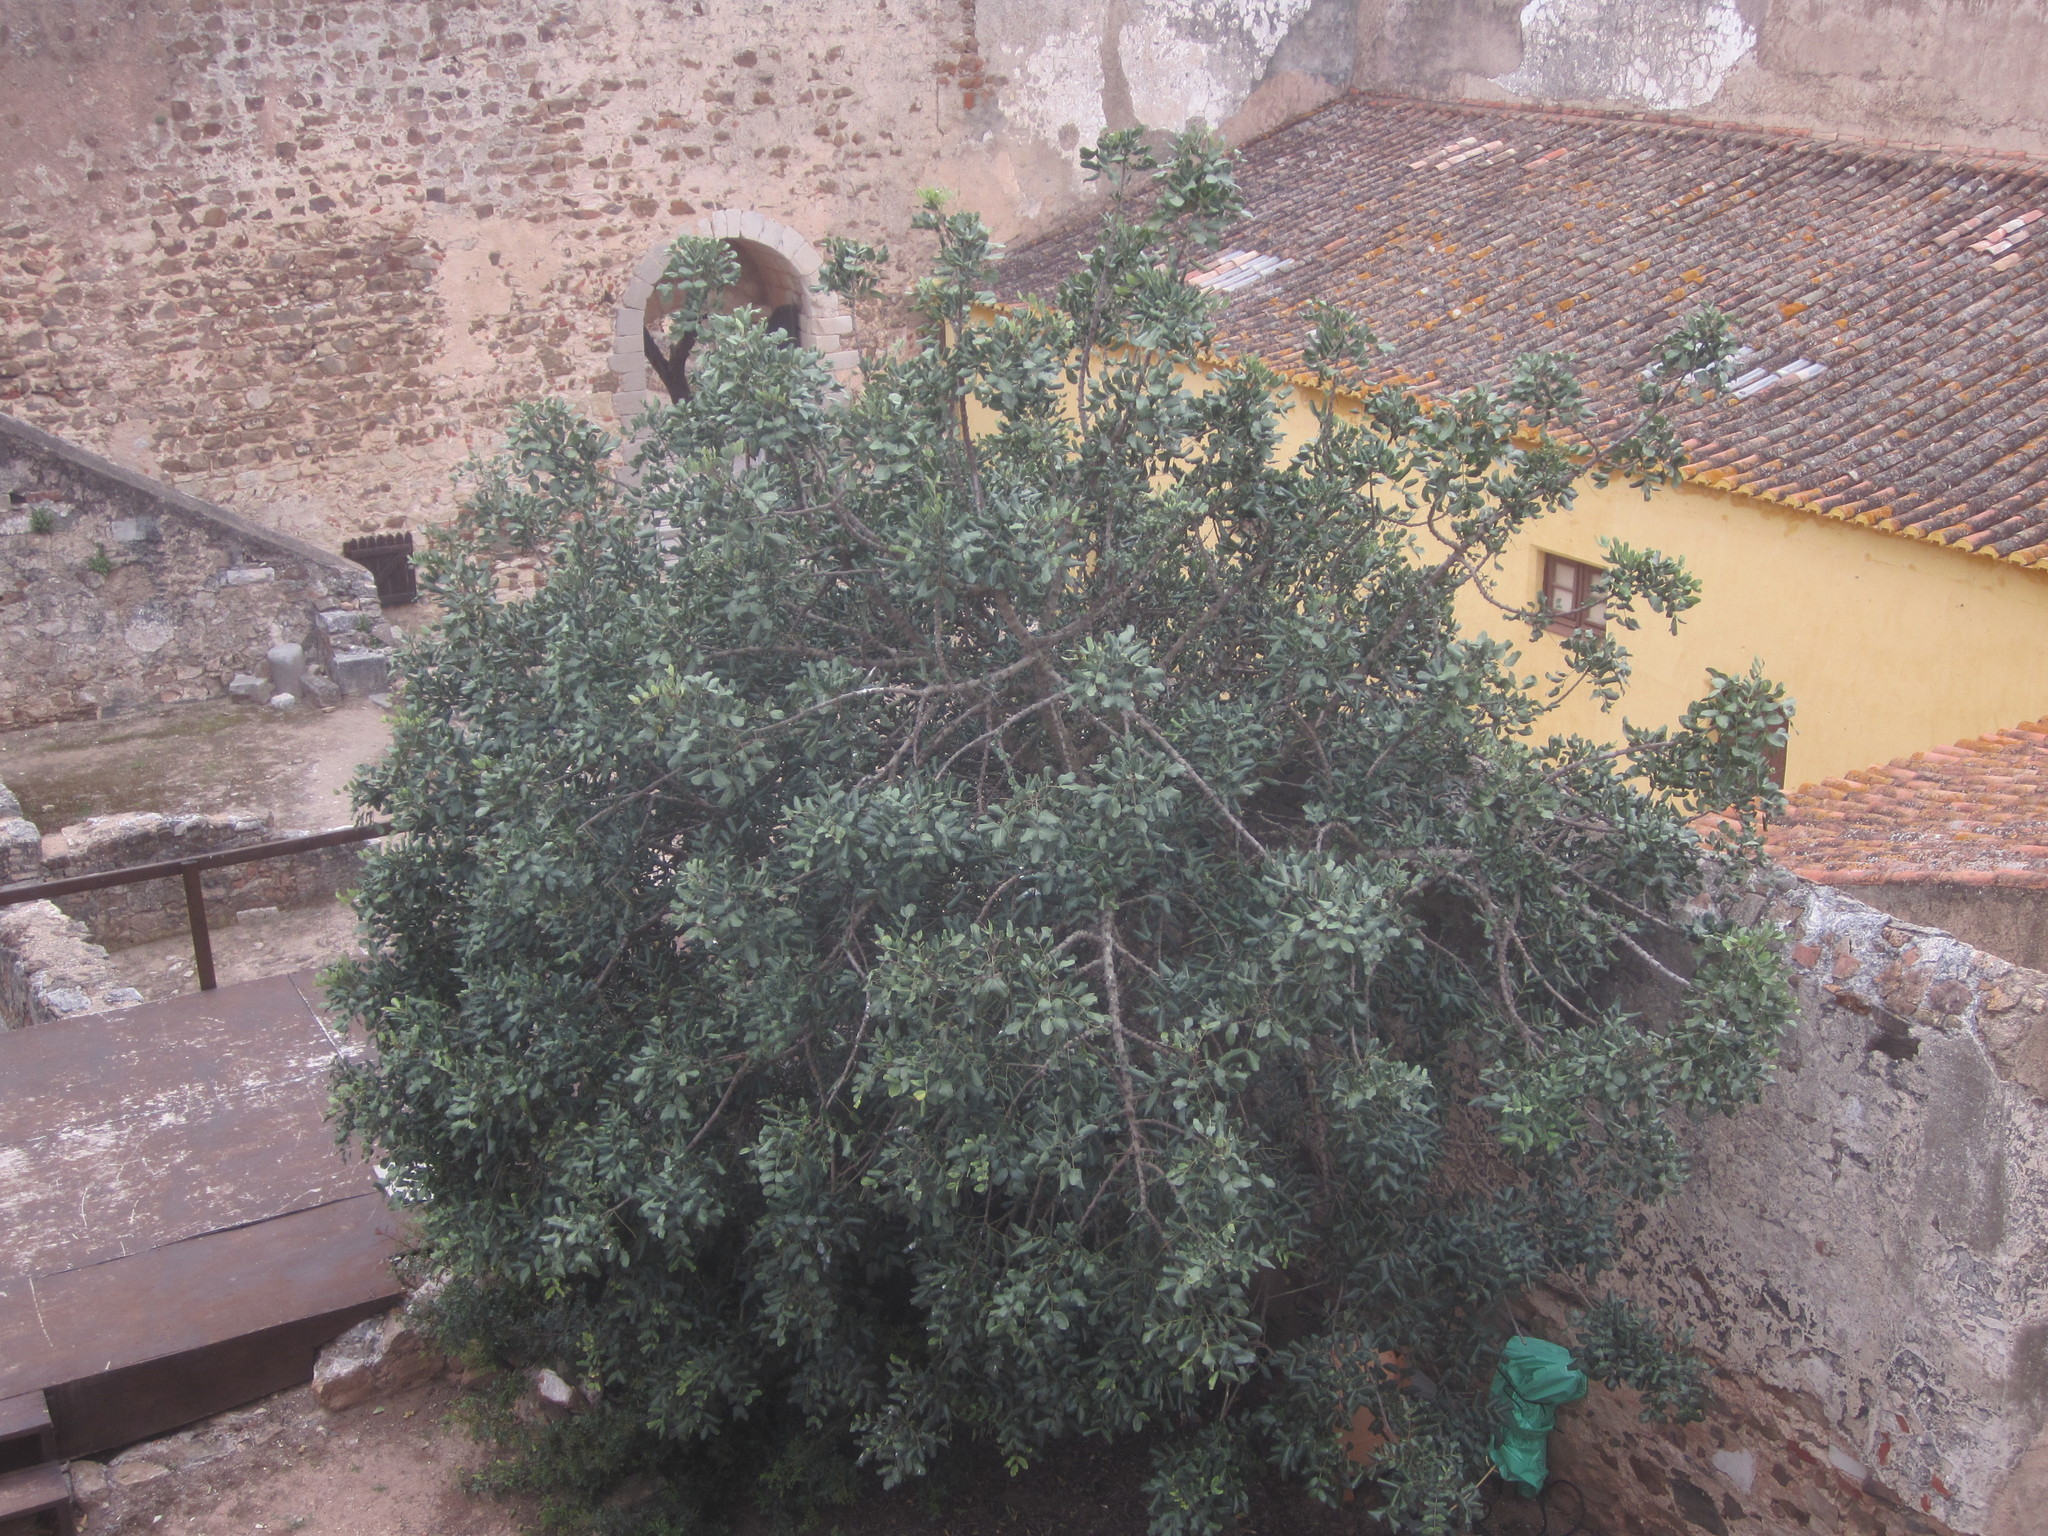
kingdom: Plantae
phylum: Tracheophyta
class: Magnoliopsida
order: Fabales
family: Fabaceae
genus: Ceratonia
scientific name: Ceratonia siliqua
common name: Carob
